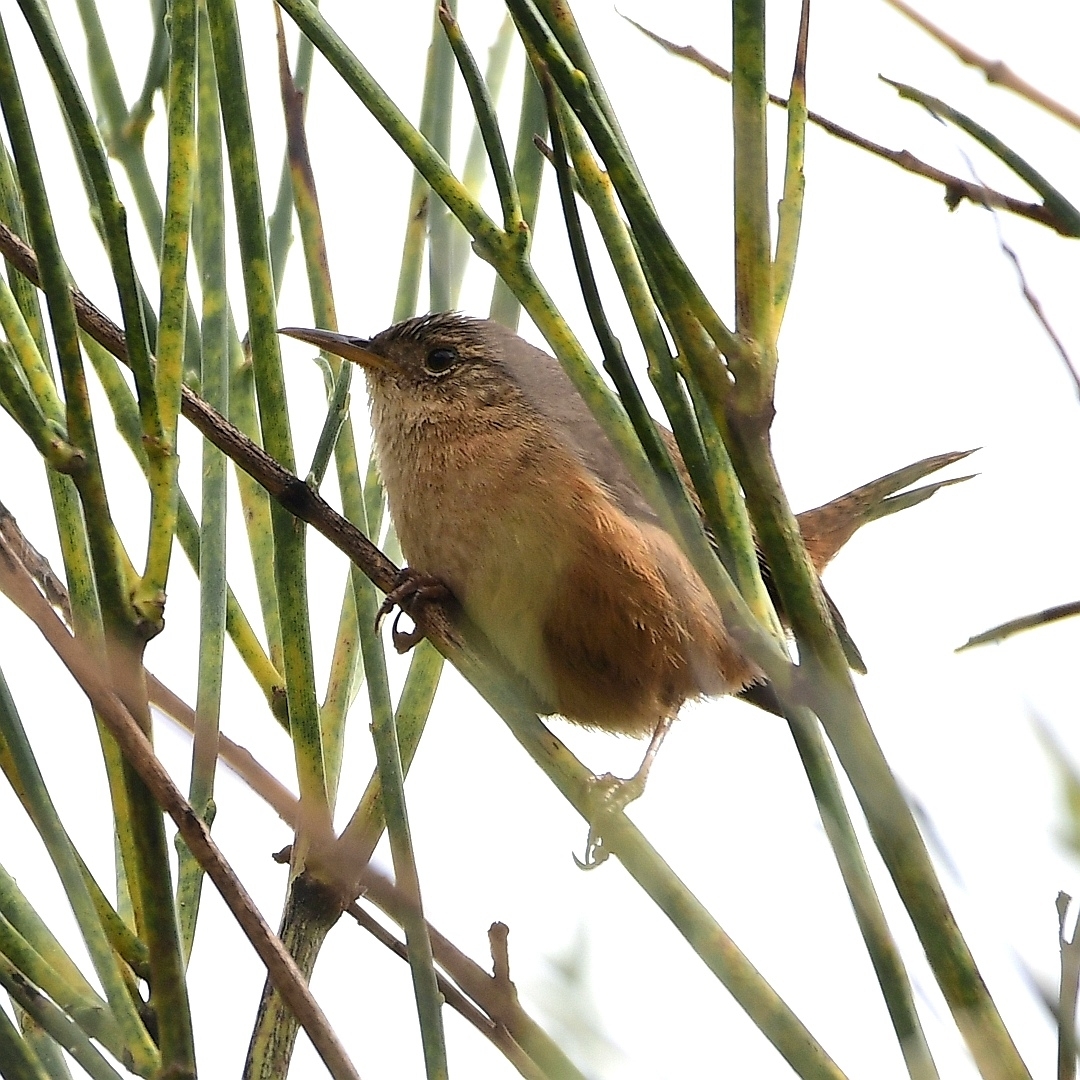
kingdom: Animalia
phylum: Chordata
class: Aves
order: Passeriformes
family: Troglodytidae
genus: Troglodytes
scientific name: Troglodytes aedon
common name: House wren
